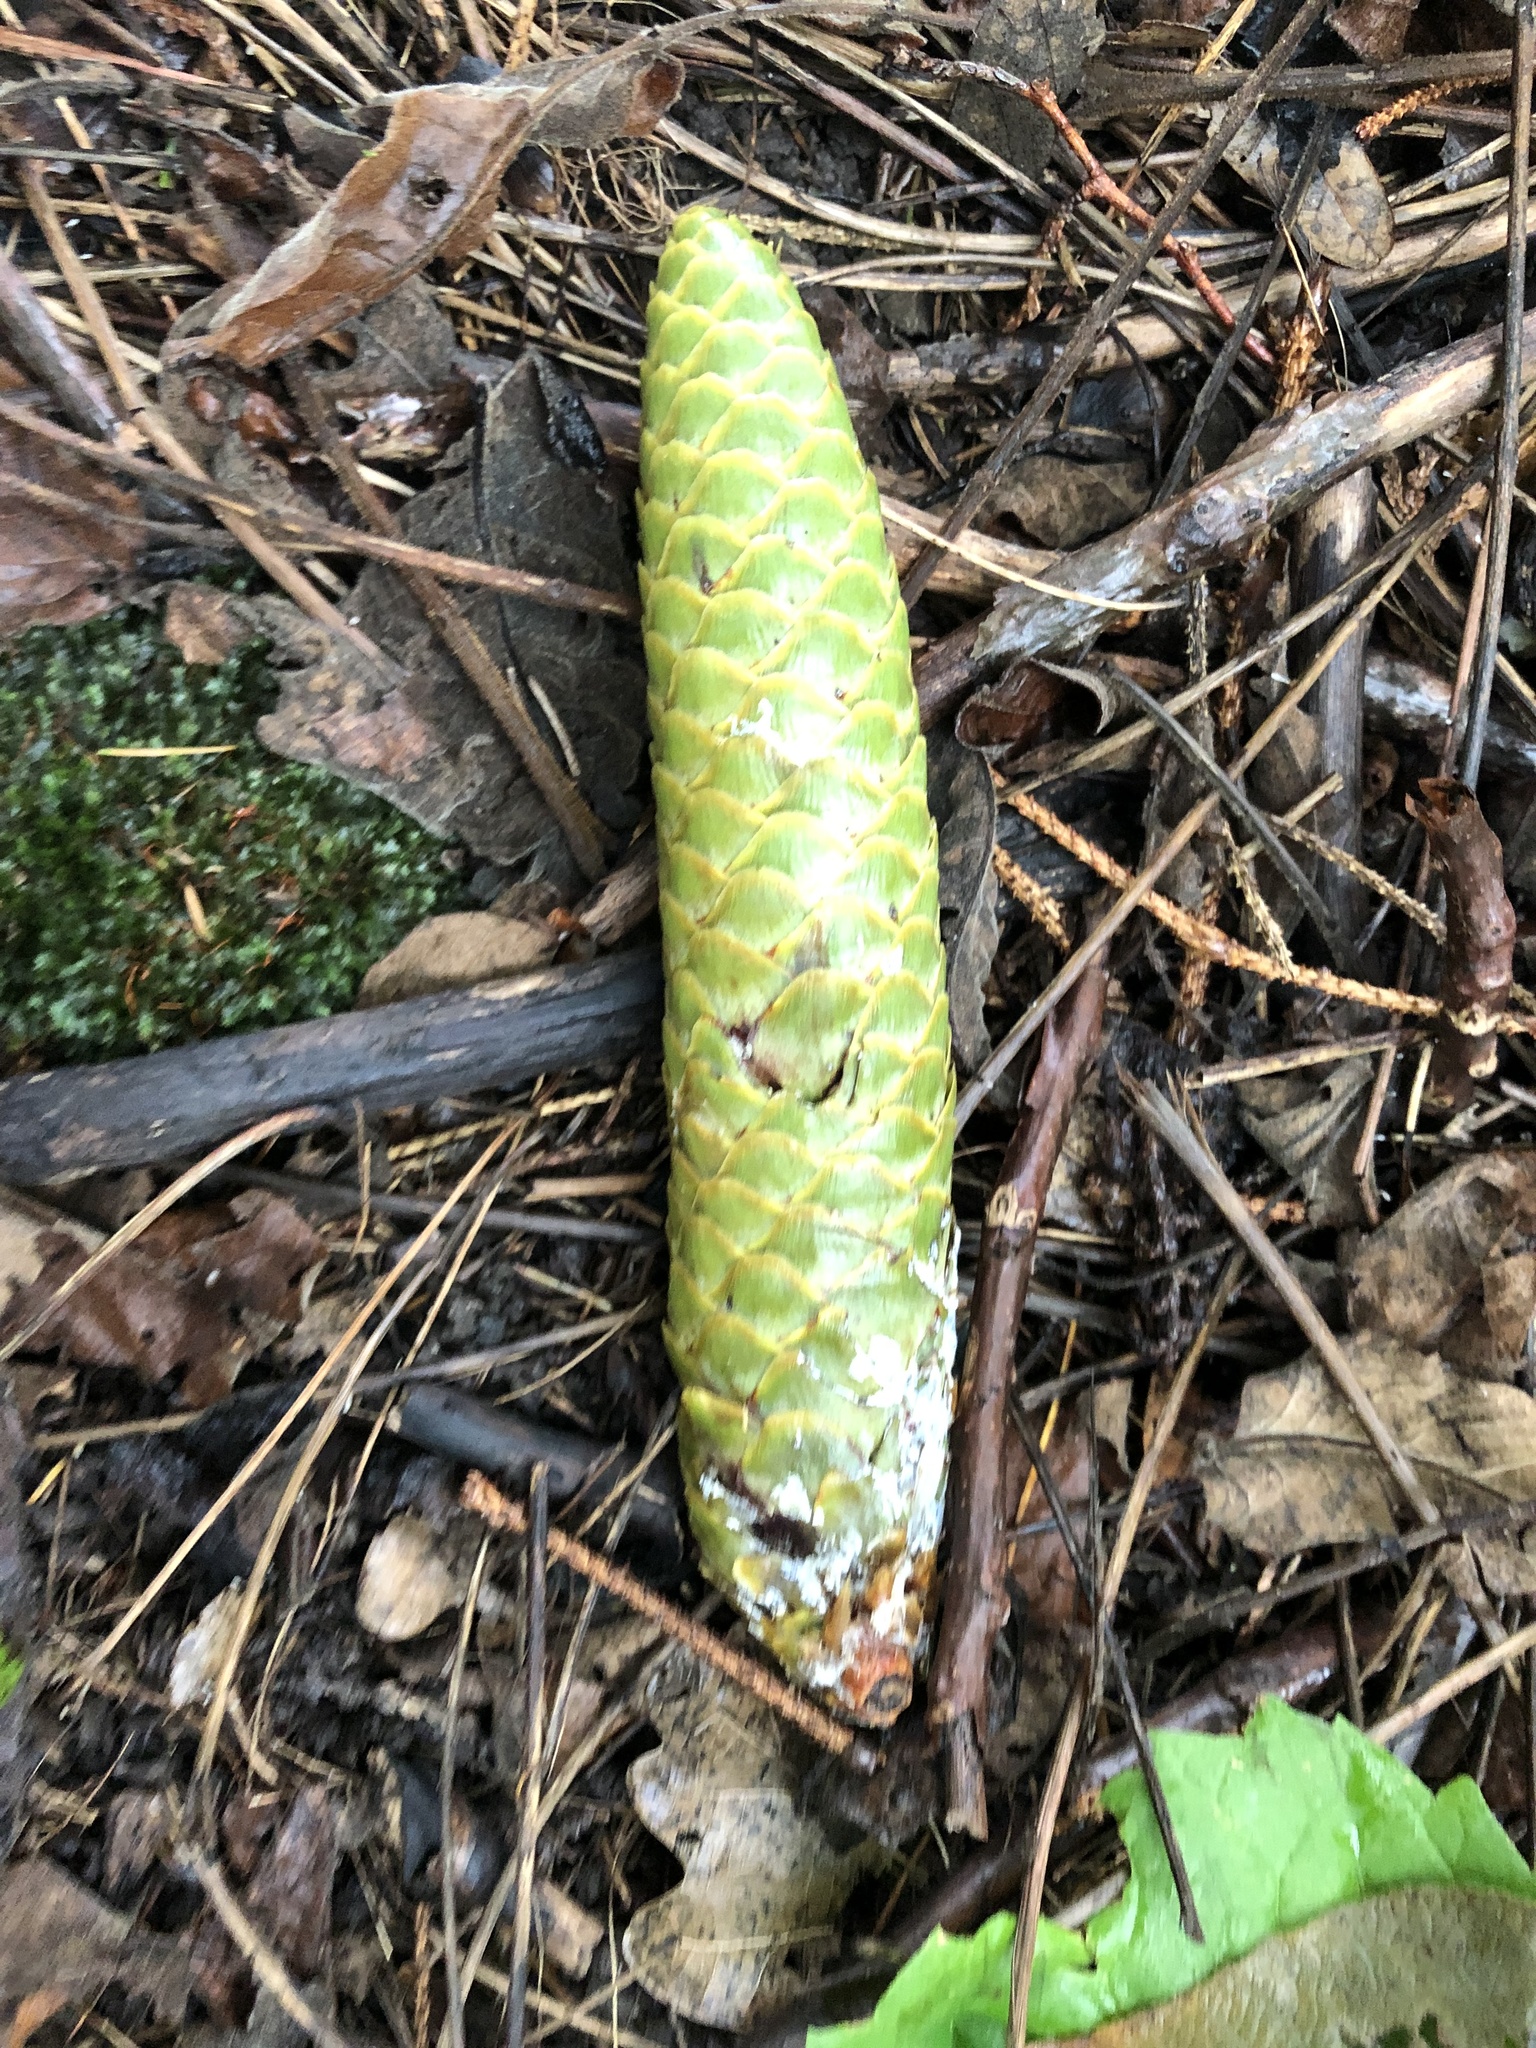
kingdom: Plantae
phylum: Tracheophyta
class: Pinopsida
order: Pinales
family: Pinaceae
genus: Picea
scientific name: Picea abies
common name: Norway spruce
